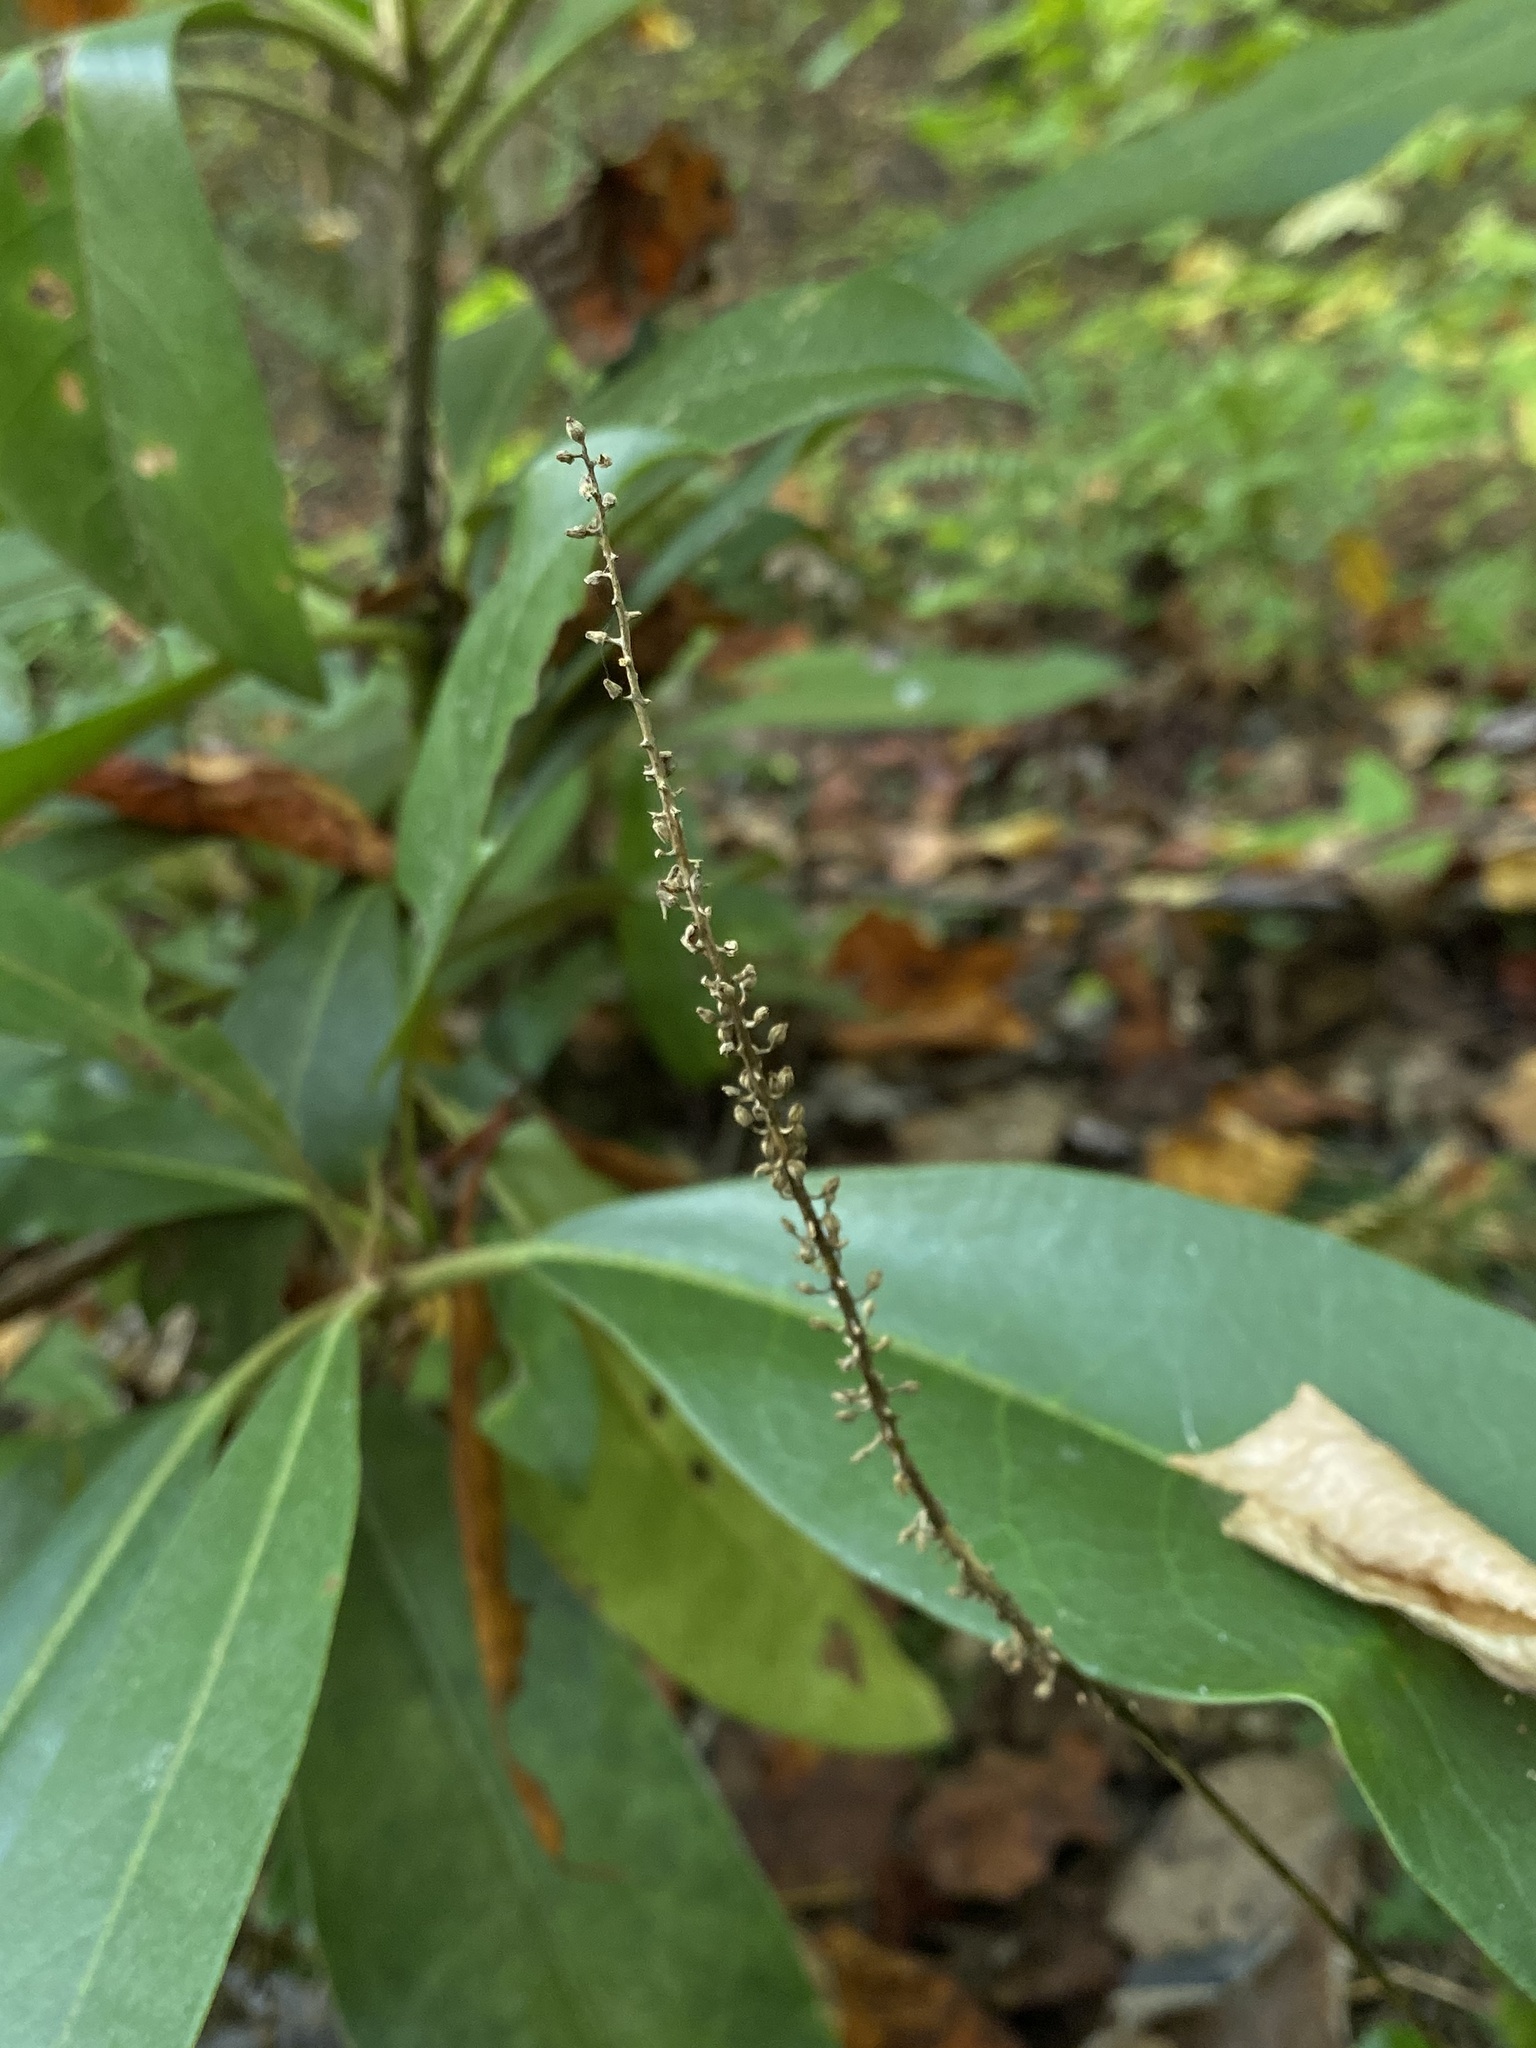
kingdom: Plantae
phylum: Tracheophyta
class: Magnoliopsida
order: Ericales
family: Diapensiaceae
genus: Galax
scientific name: Galax urceolata
